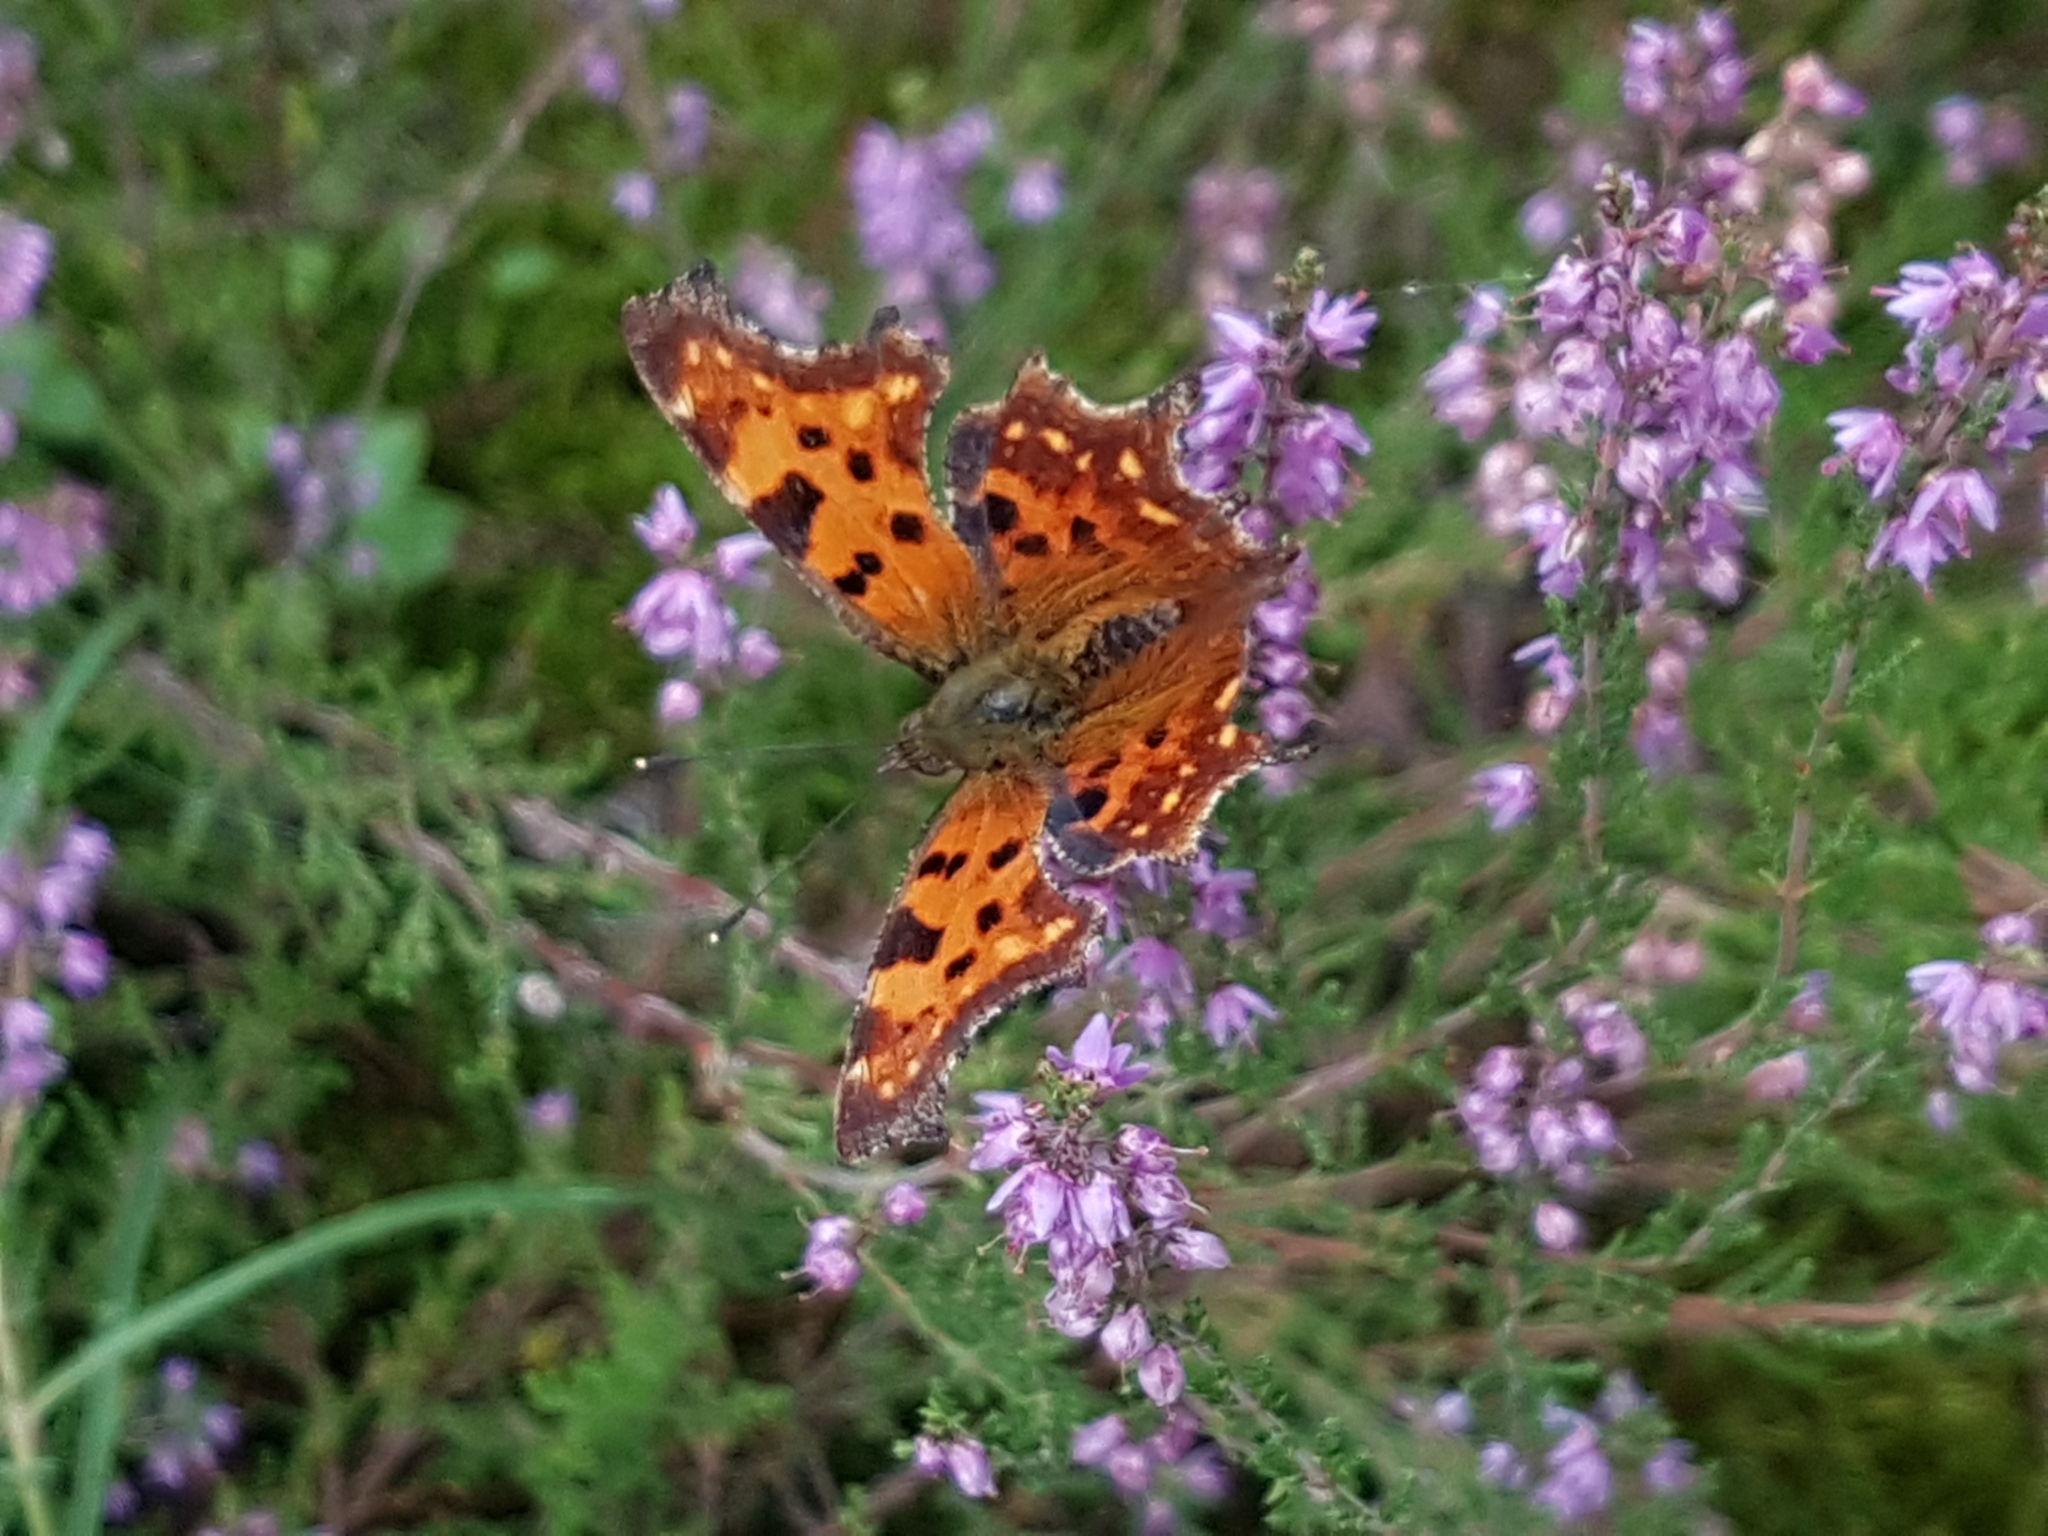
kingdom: Animalia
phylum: Arthropoda
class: Insecta
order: Lepidoptera
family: Nymphalidae
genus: Polygonia
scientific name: Polygonia c-album
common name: Comma
